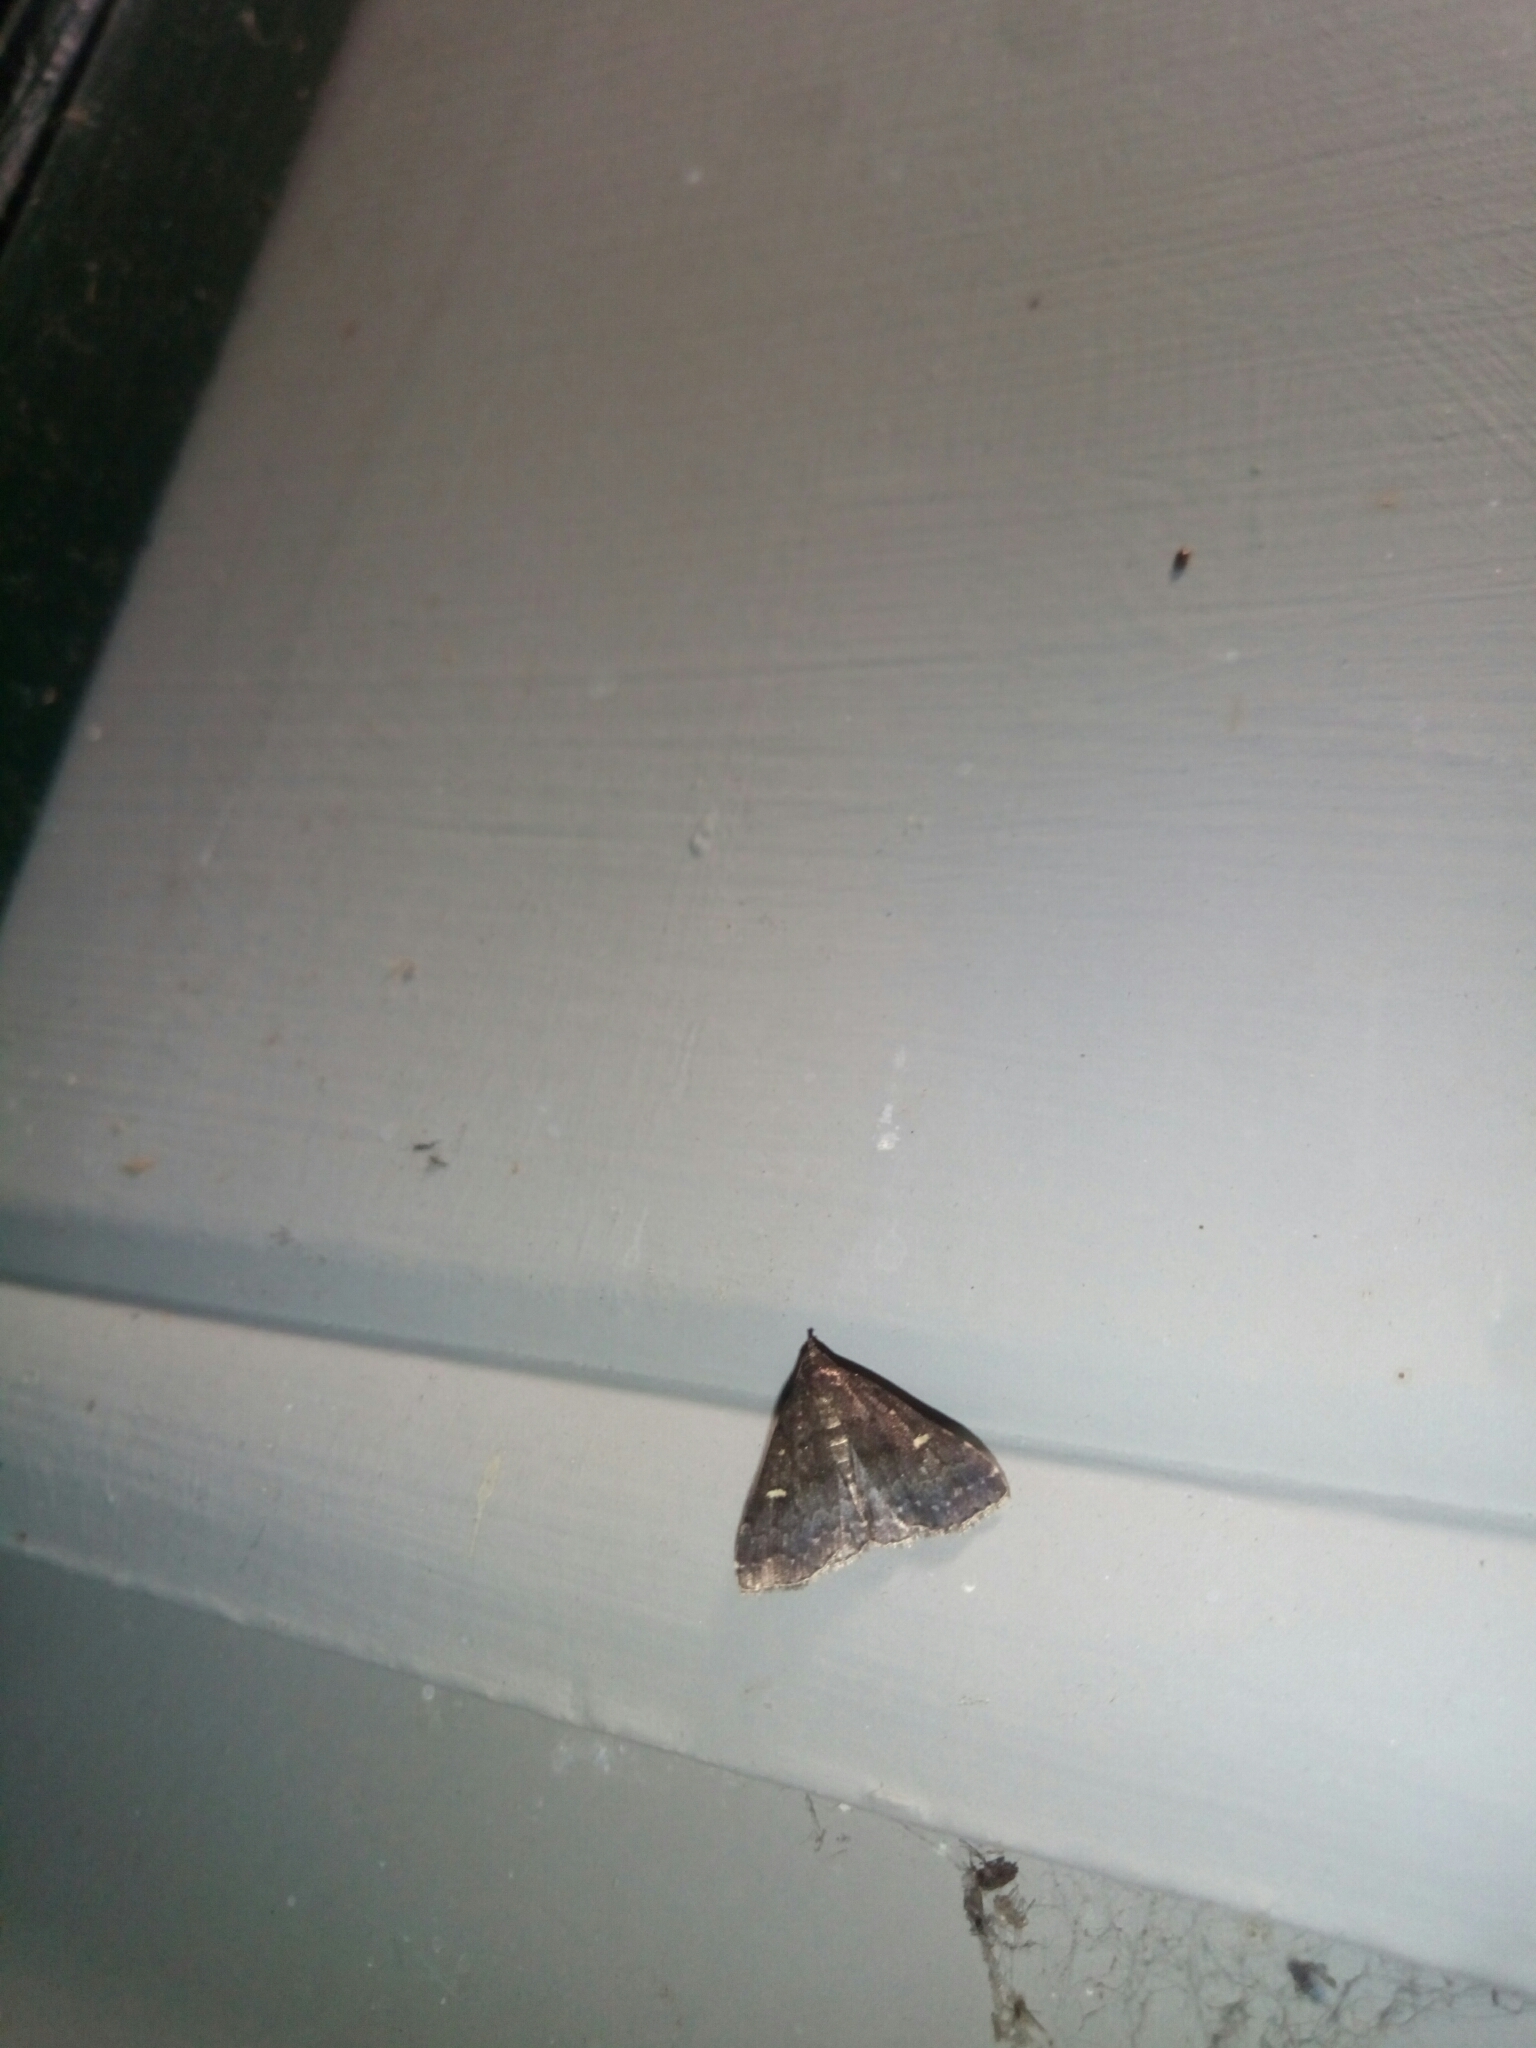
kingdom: Animalia
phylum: Arthropoda
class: Insecta
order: Lepidoptera
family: Erebidae
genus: Tetanolita
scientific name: Tetanolita mynesalis
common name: Smoky tetanolita moth
